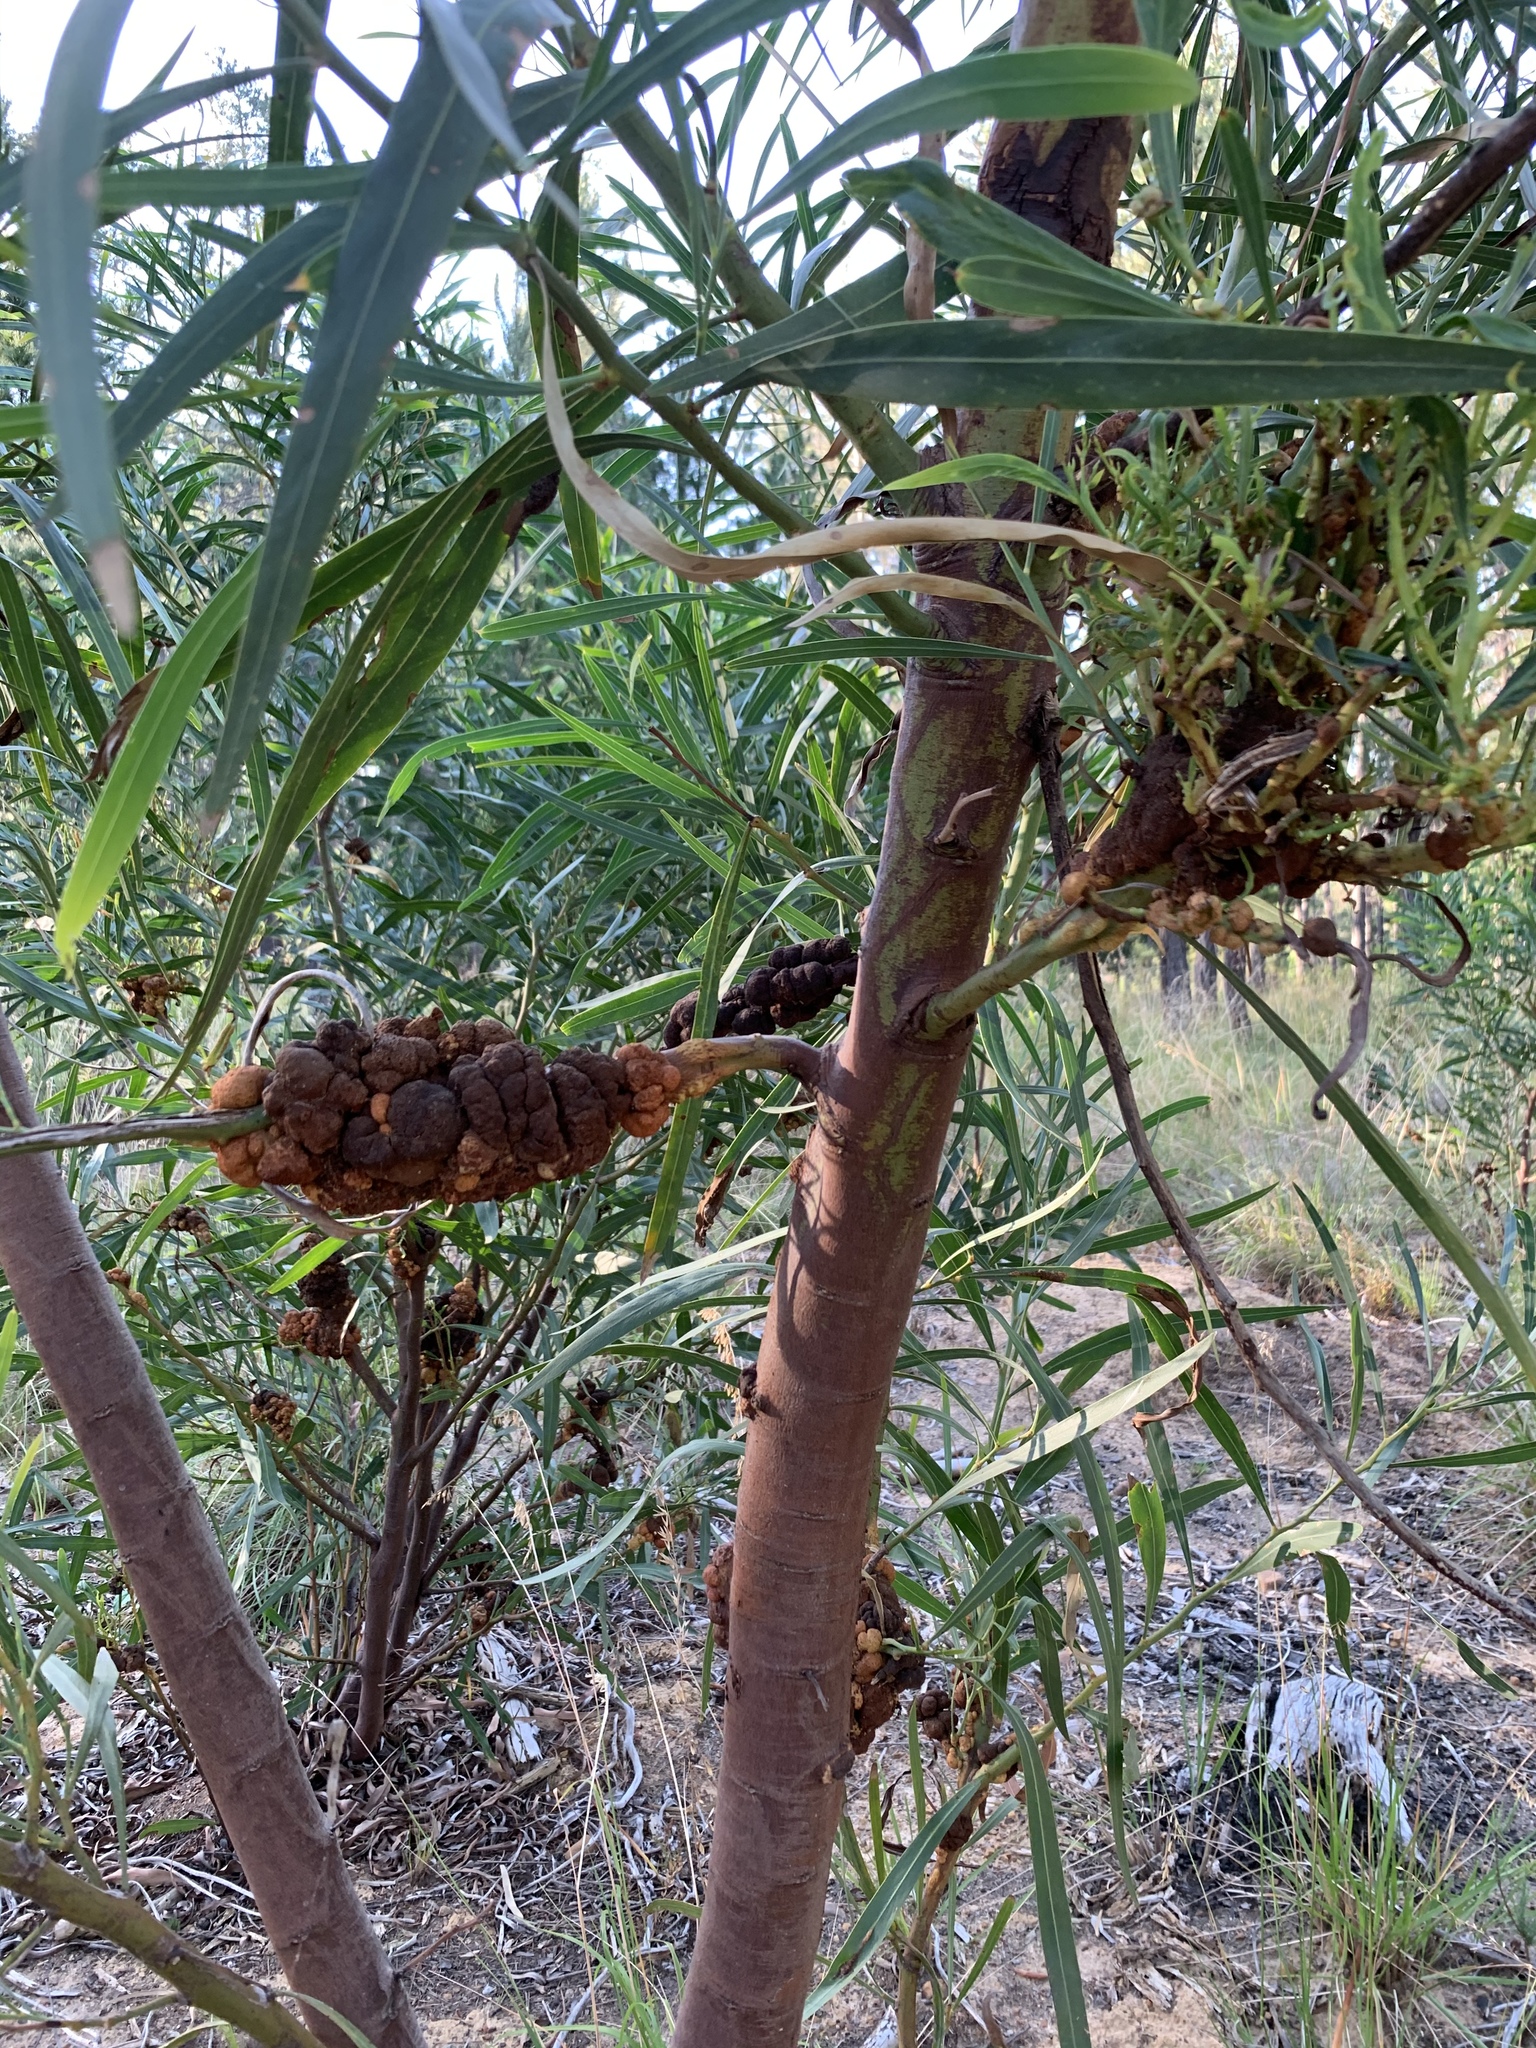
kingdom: Plantae
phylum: Tracheophyta
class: Magnoliopsida
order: Fabales
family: Fabaceae
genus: Acacia
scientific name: Acacia saligna
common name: Orange wattle
